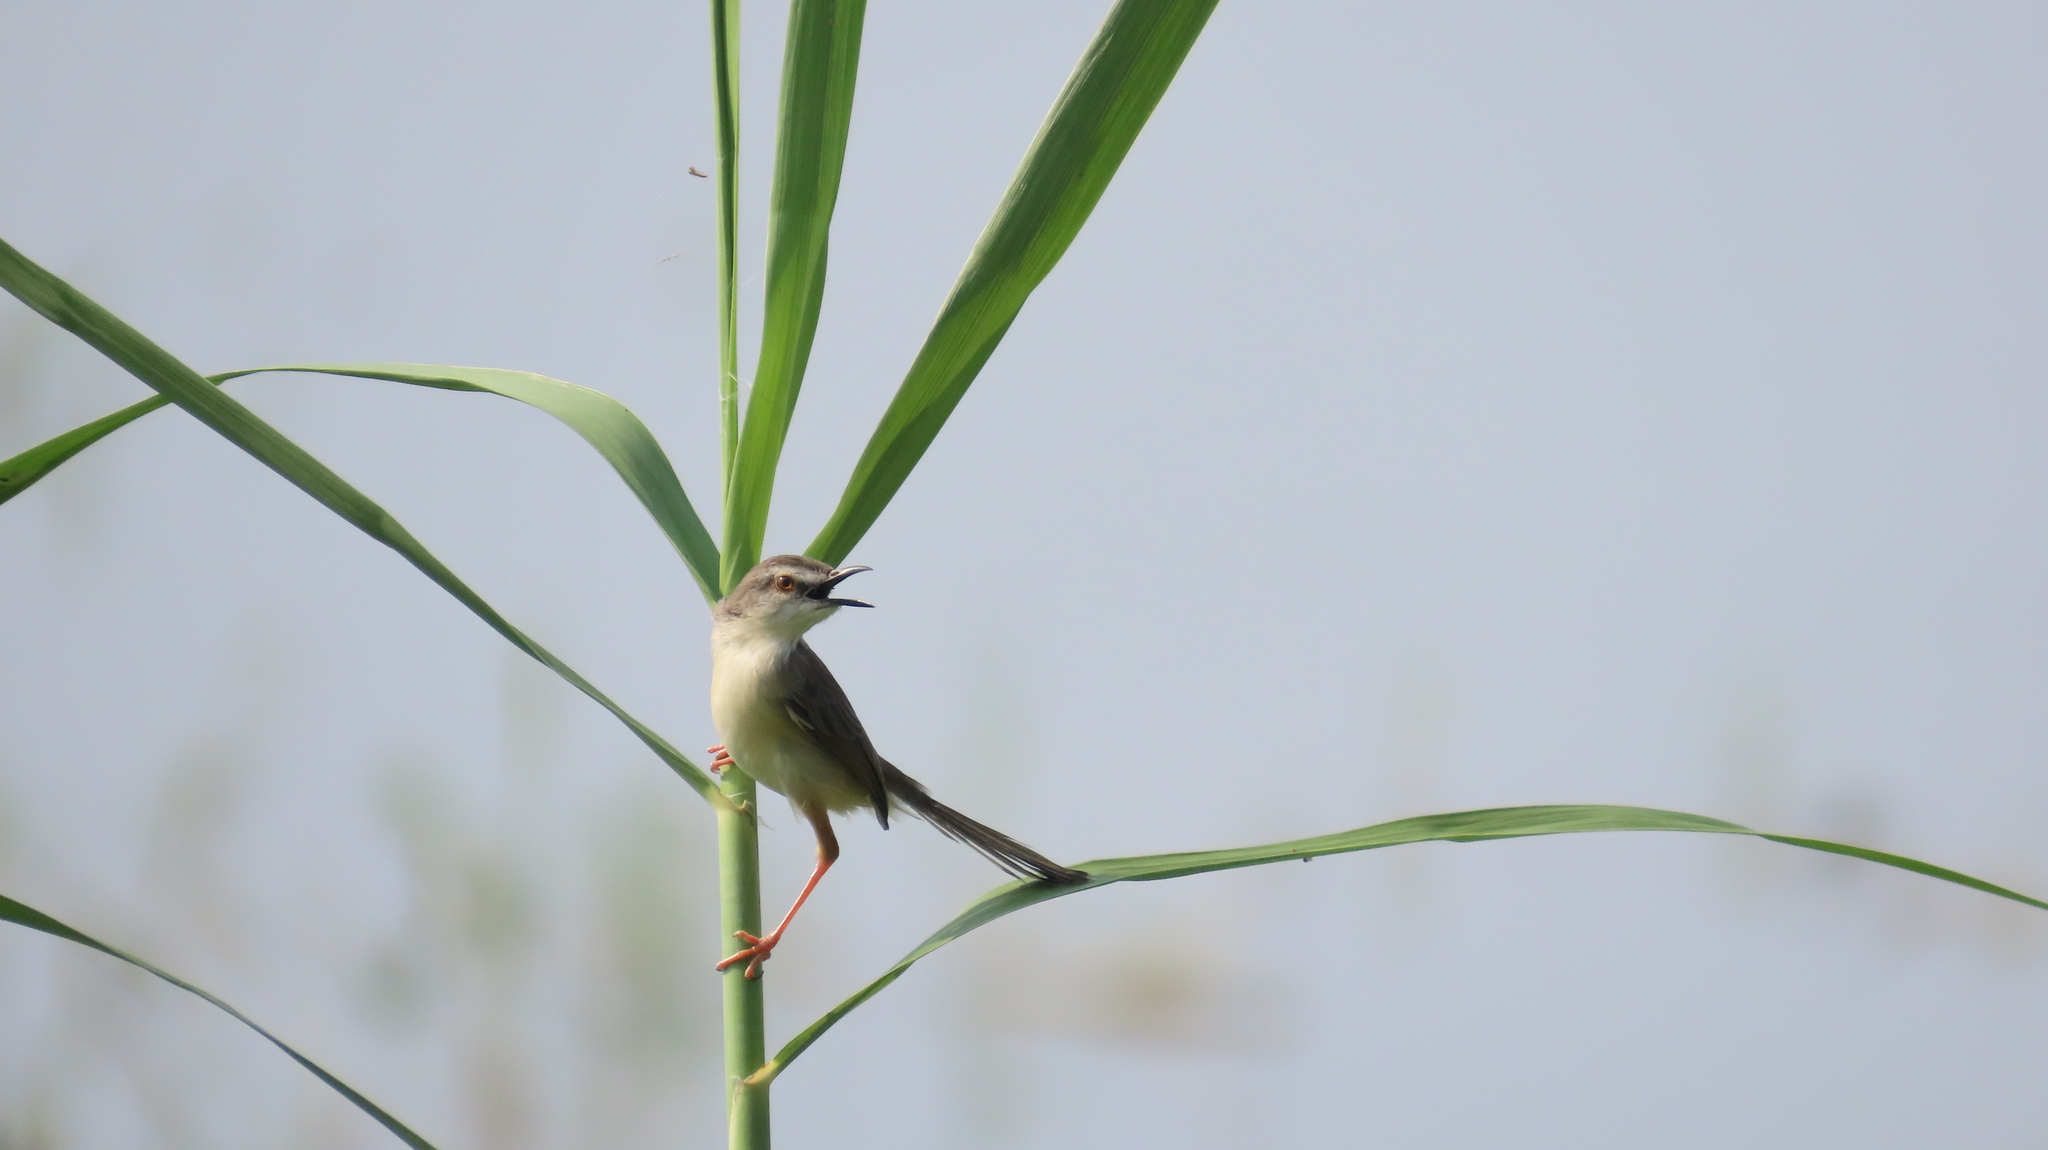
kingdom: Animalia
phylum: Chordata
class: Aves
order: Passeriformes
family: Cisticolidae
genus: Prinia
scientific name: Prinia inornata
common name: Plain prinia
